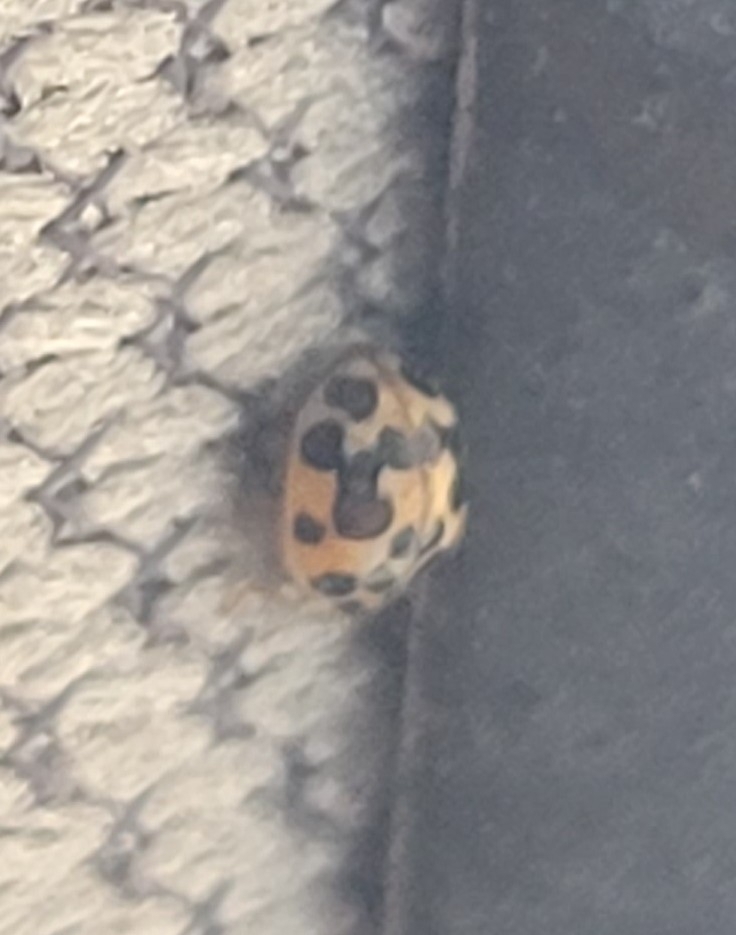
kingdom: Animalia
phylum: Arthropoda
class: Insecta
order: Coleoptera
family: Coccinellidae
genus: Psyllobora
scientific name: Psyllobora vigintimaculata
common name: Ladybird beetle
